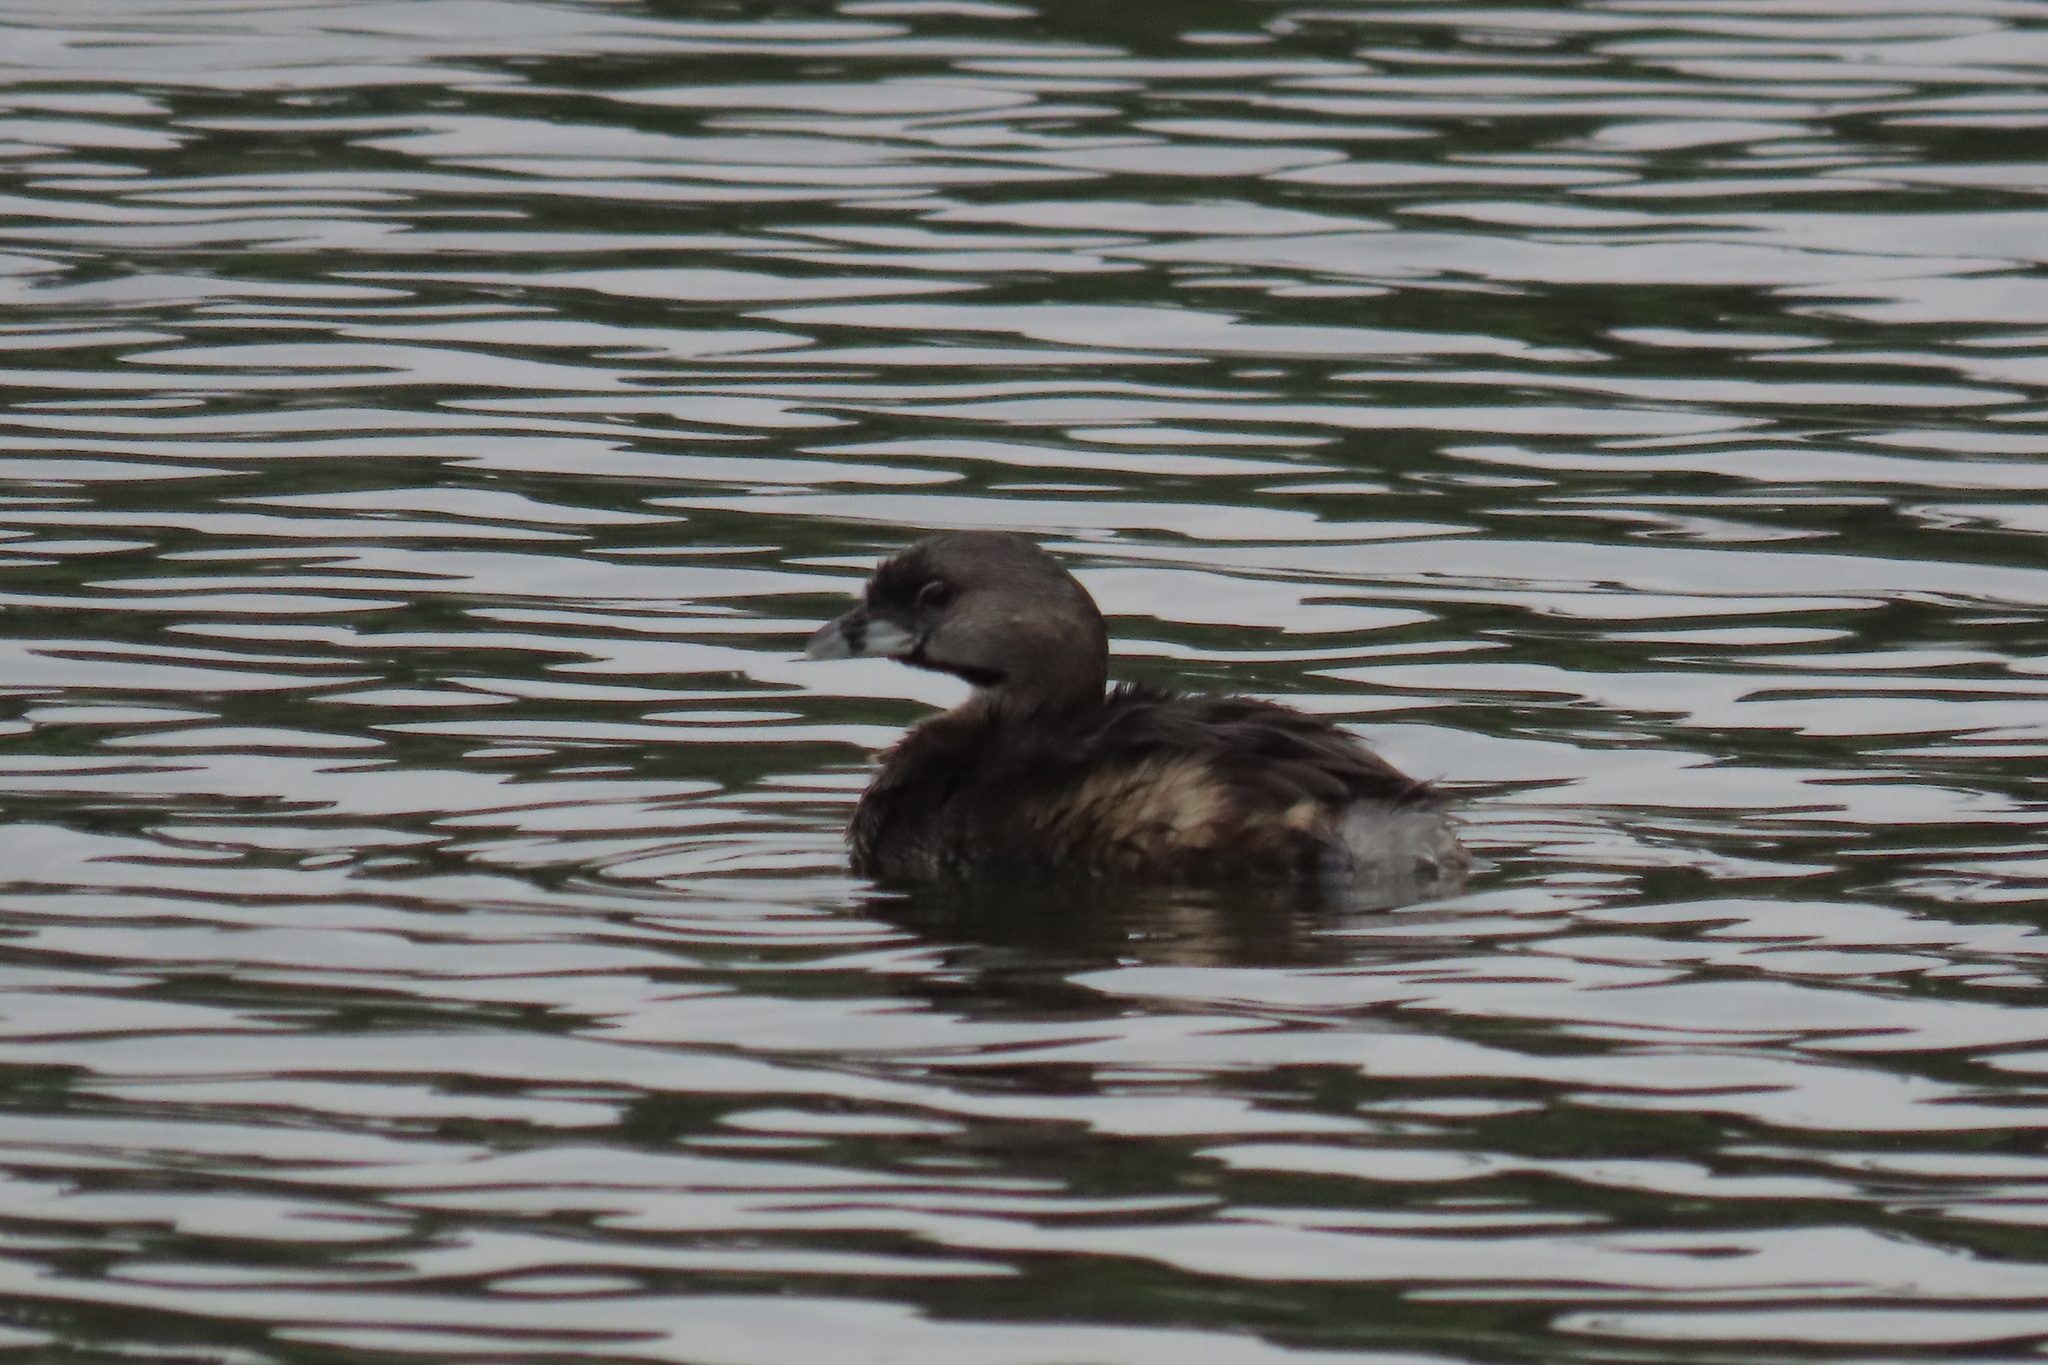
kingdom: Animalia
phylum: Chordata
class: Aves
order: Podicipediformes
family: Podicipedidae
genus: Podilymbus
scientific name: Podilymbus podiceps
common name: Pied-billed grebe
